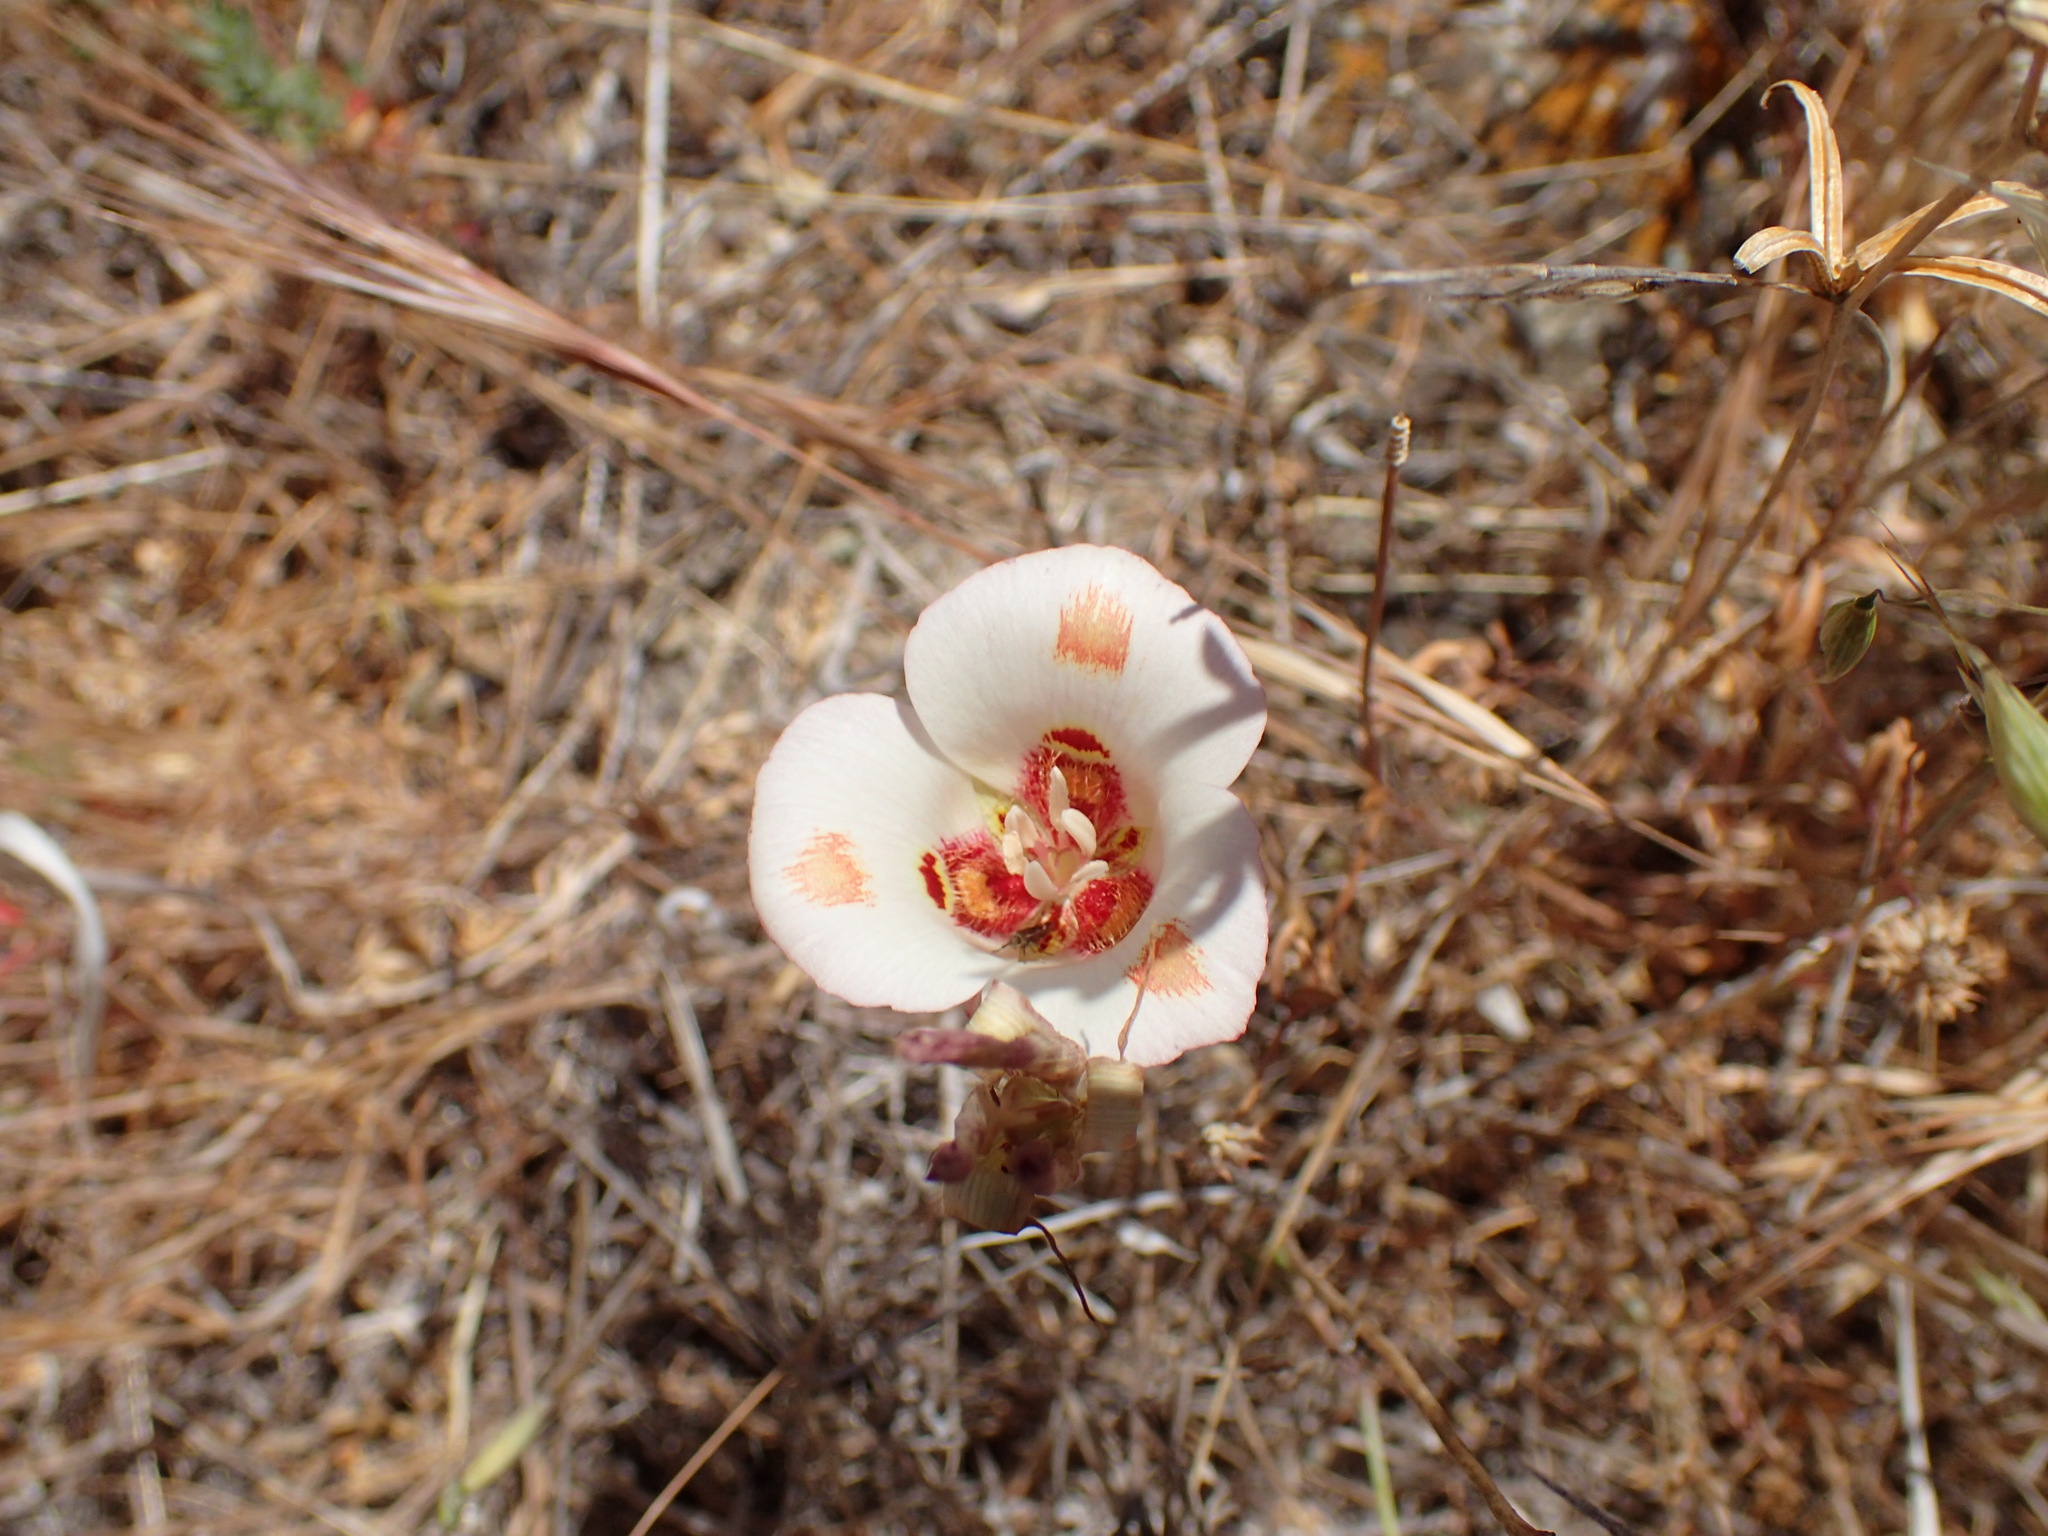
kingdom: Plantae
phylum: Tracheophyta
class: Liliopsida
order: Liliales
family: Liliaceae
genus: Calochortus
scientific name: Calochortus venustus
